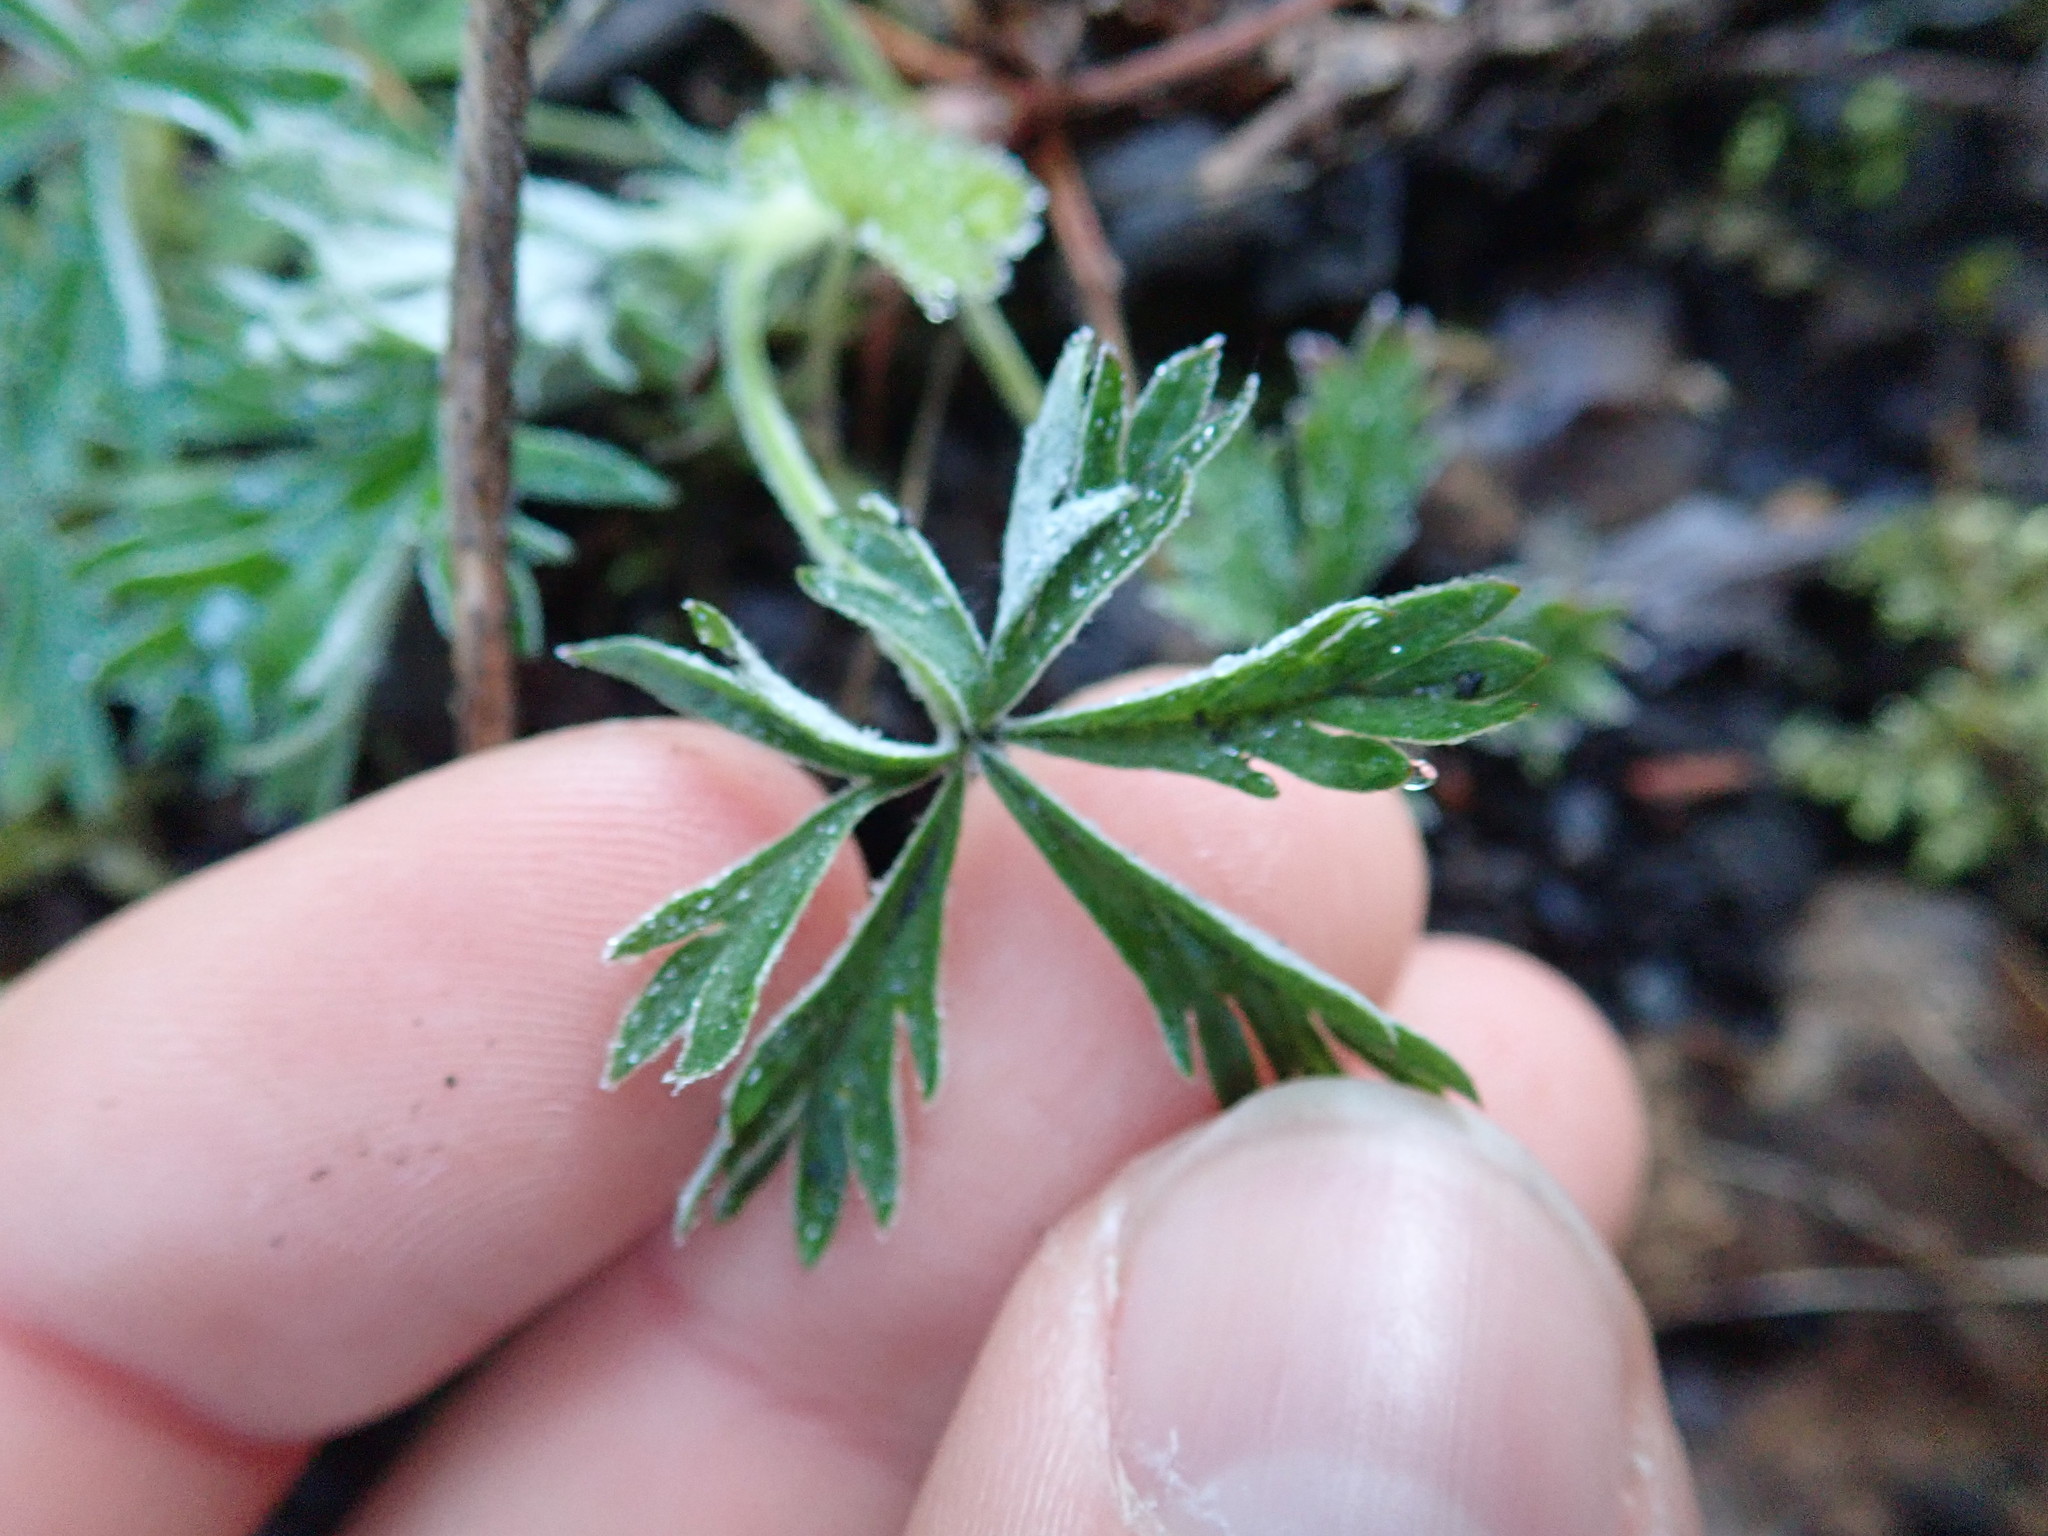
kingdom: Plantae
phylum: Tracheophyta
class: Magnoliopsida
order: Rosales
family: Rosaceae
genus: Potentilla
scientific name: Potentilla argentea
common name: Hoary cinquefoil
